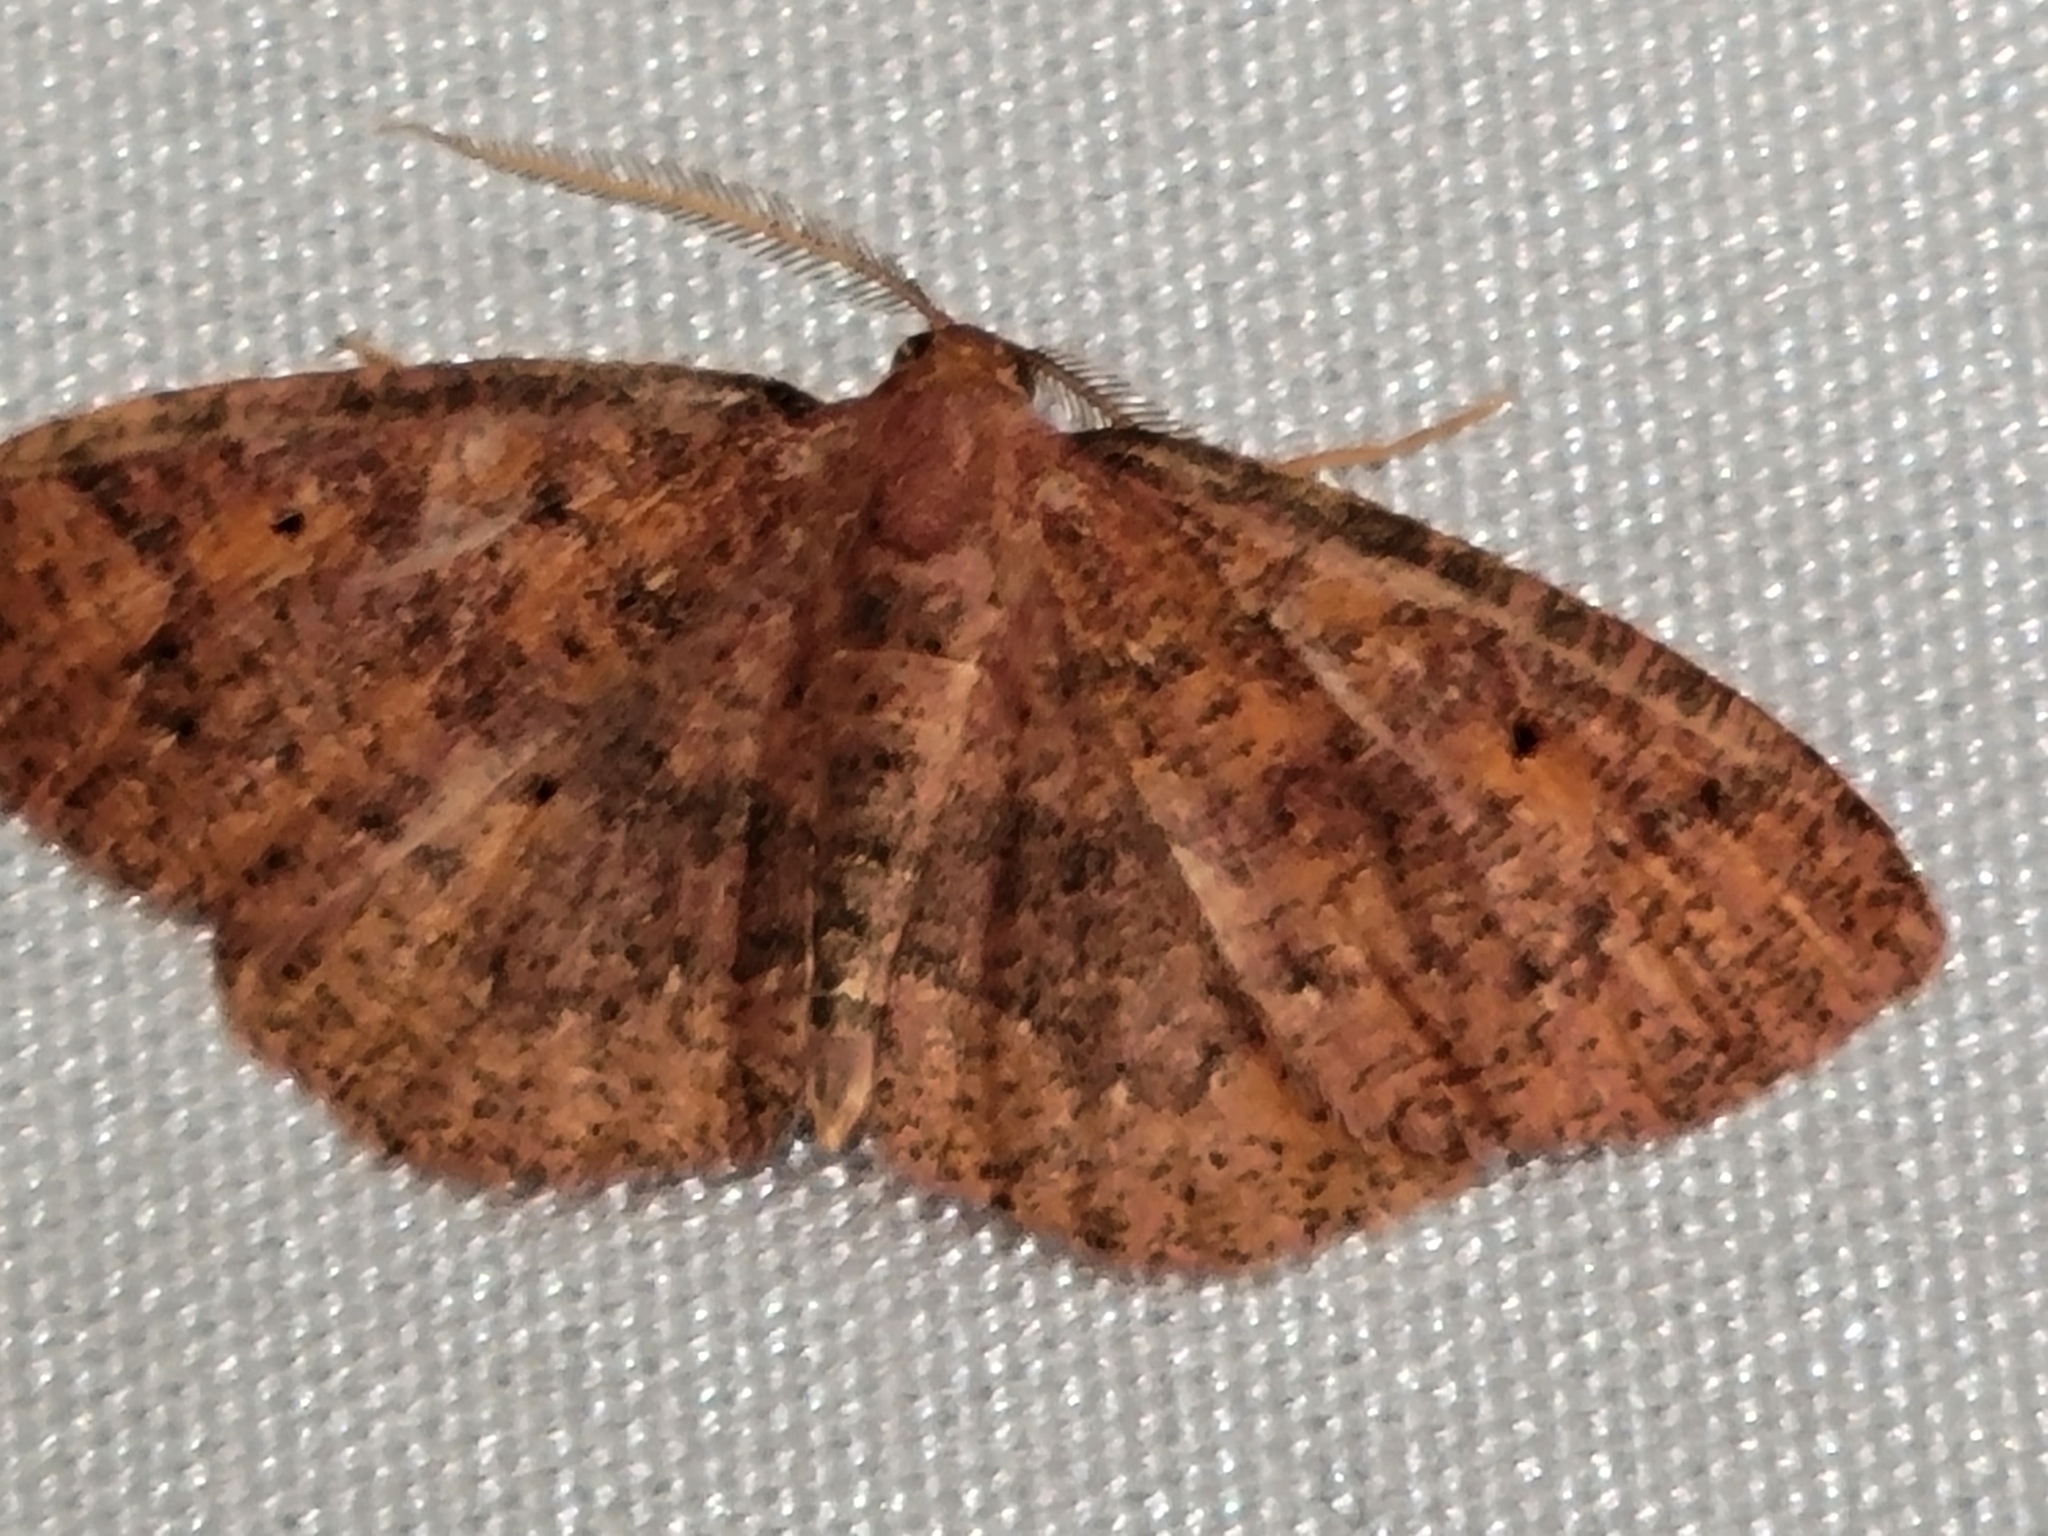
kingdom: Animalia
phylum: Arthropoda
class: Insecta
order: Lepidoptera
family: Geometridae
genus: Ilexia
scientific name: Ilexia intractata
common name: Black-dotted ruddy moth
